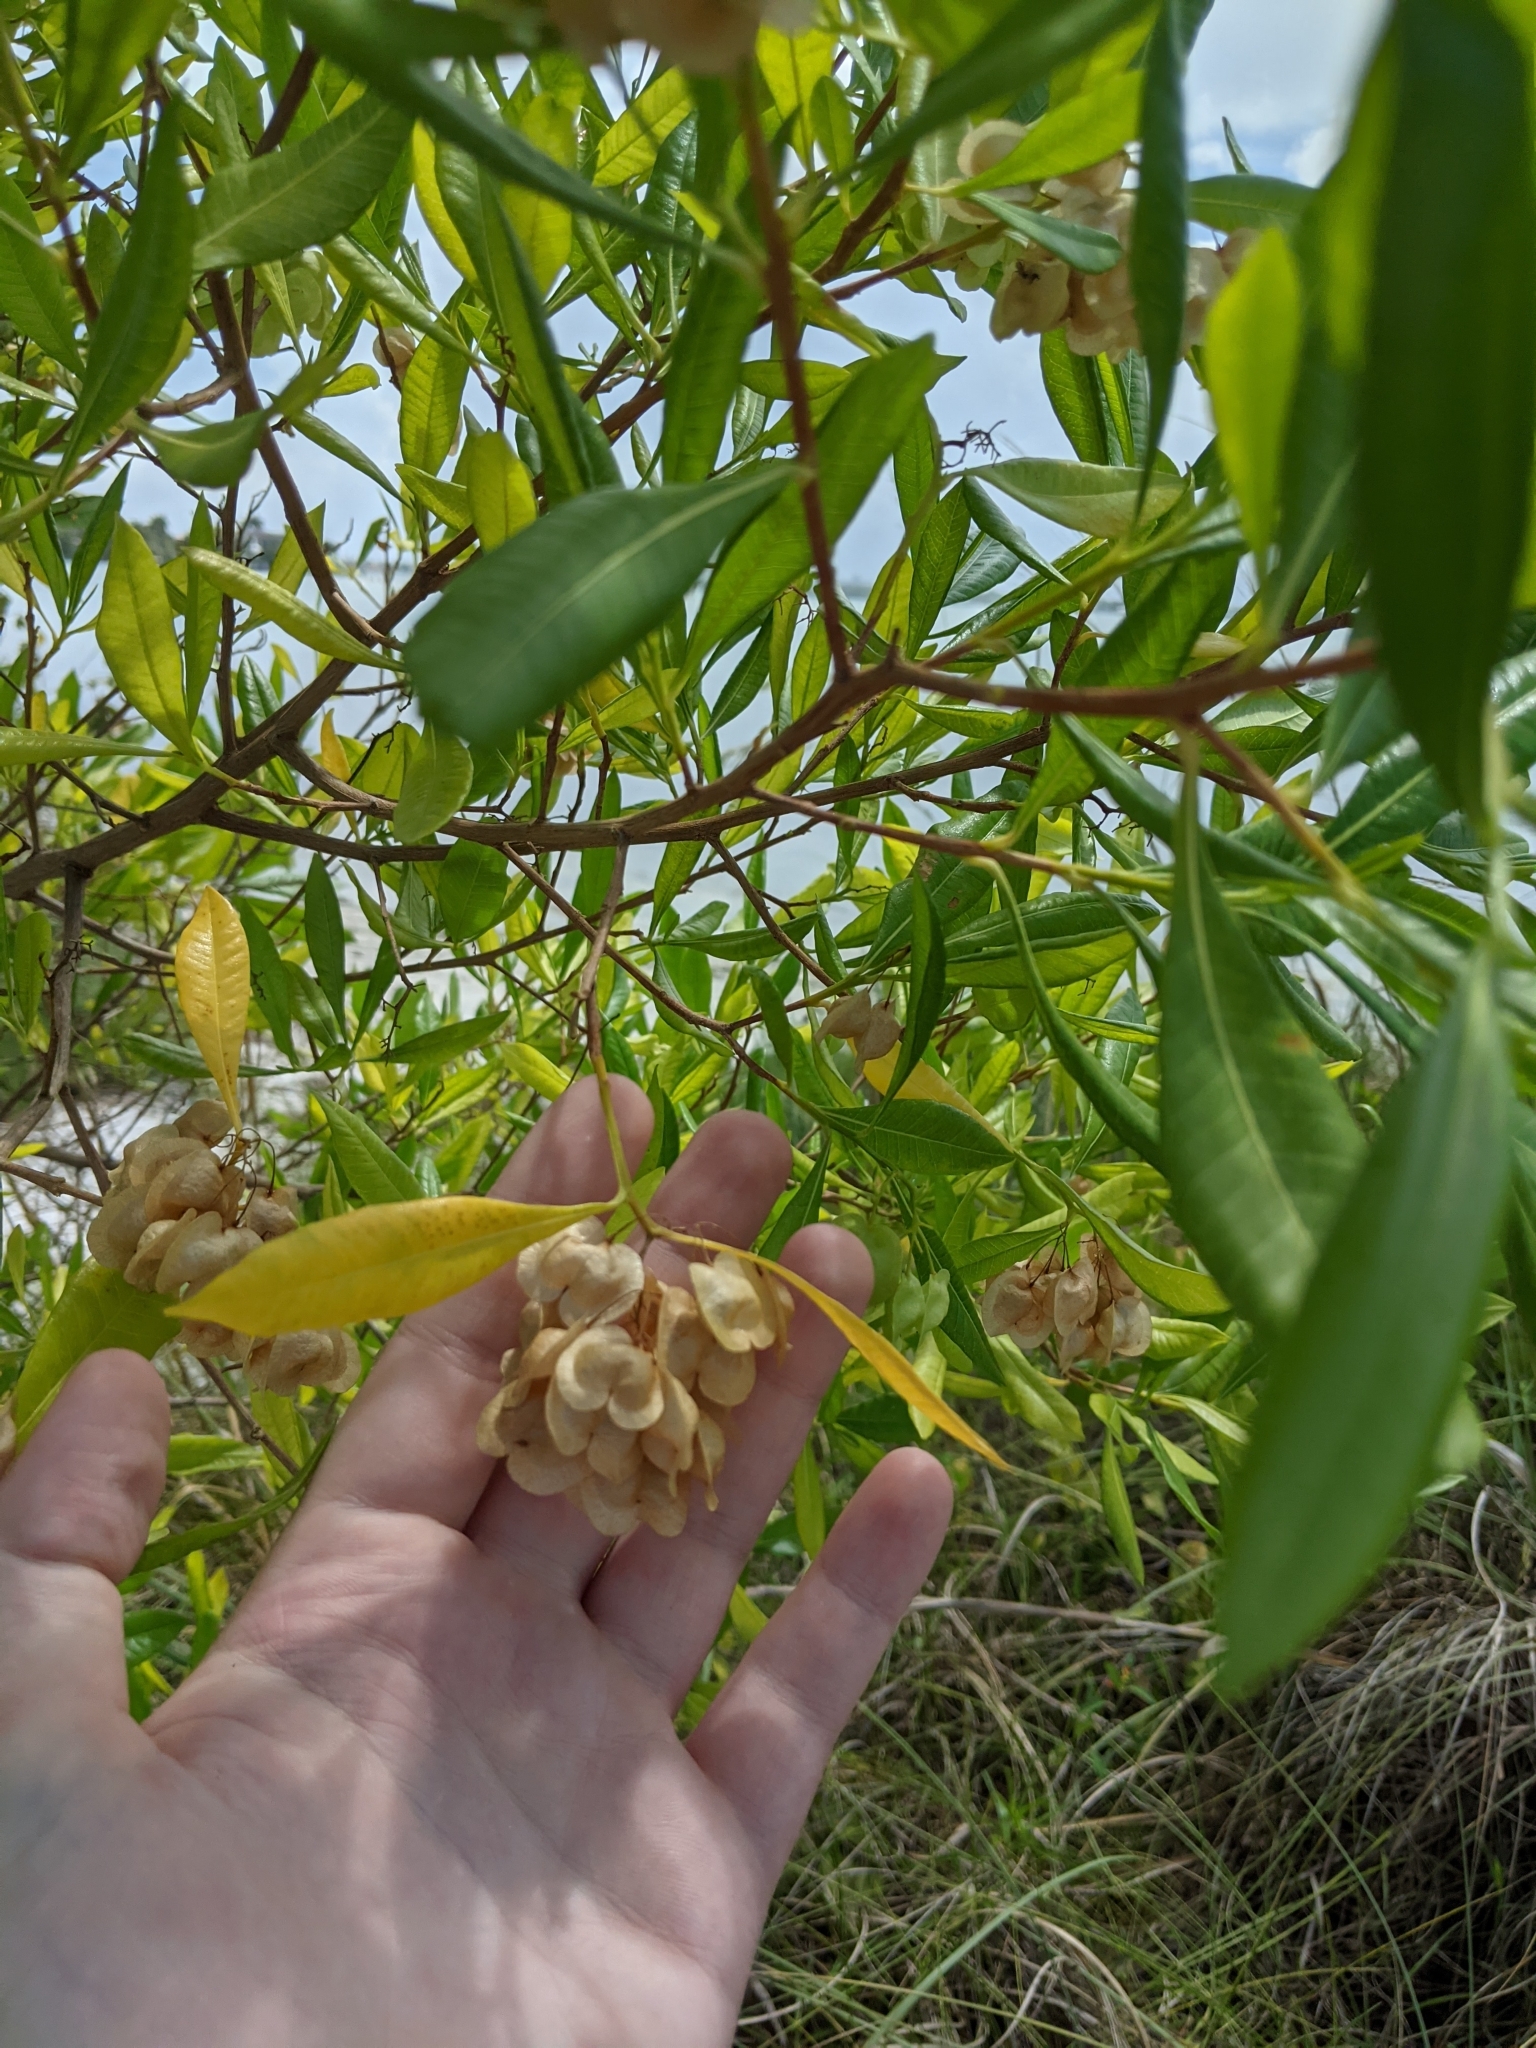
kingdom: Plantae
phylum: Tracheophyta
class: Magnoliopsida
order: Sapindales
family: Sapindaceae
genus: Dodonaea
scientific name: Dodonaea viscosa
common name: Hopbush
